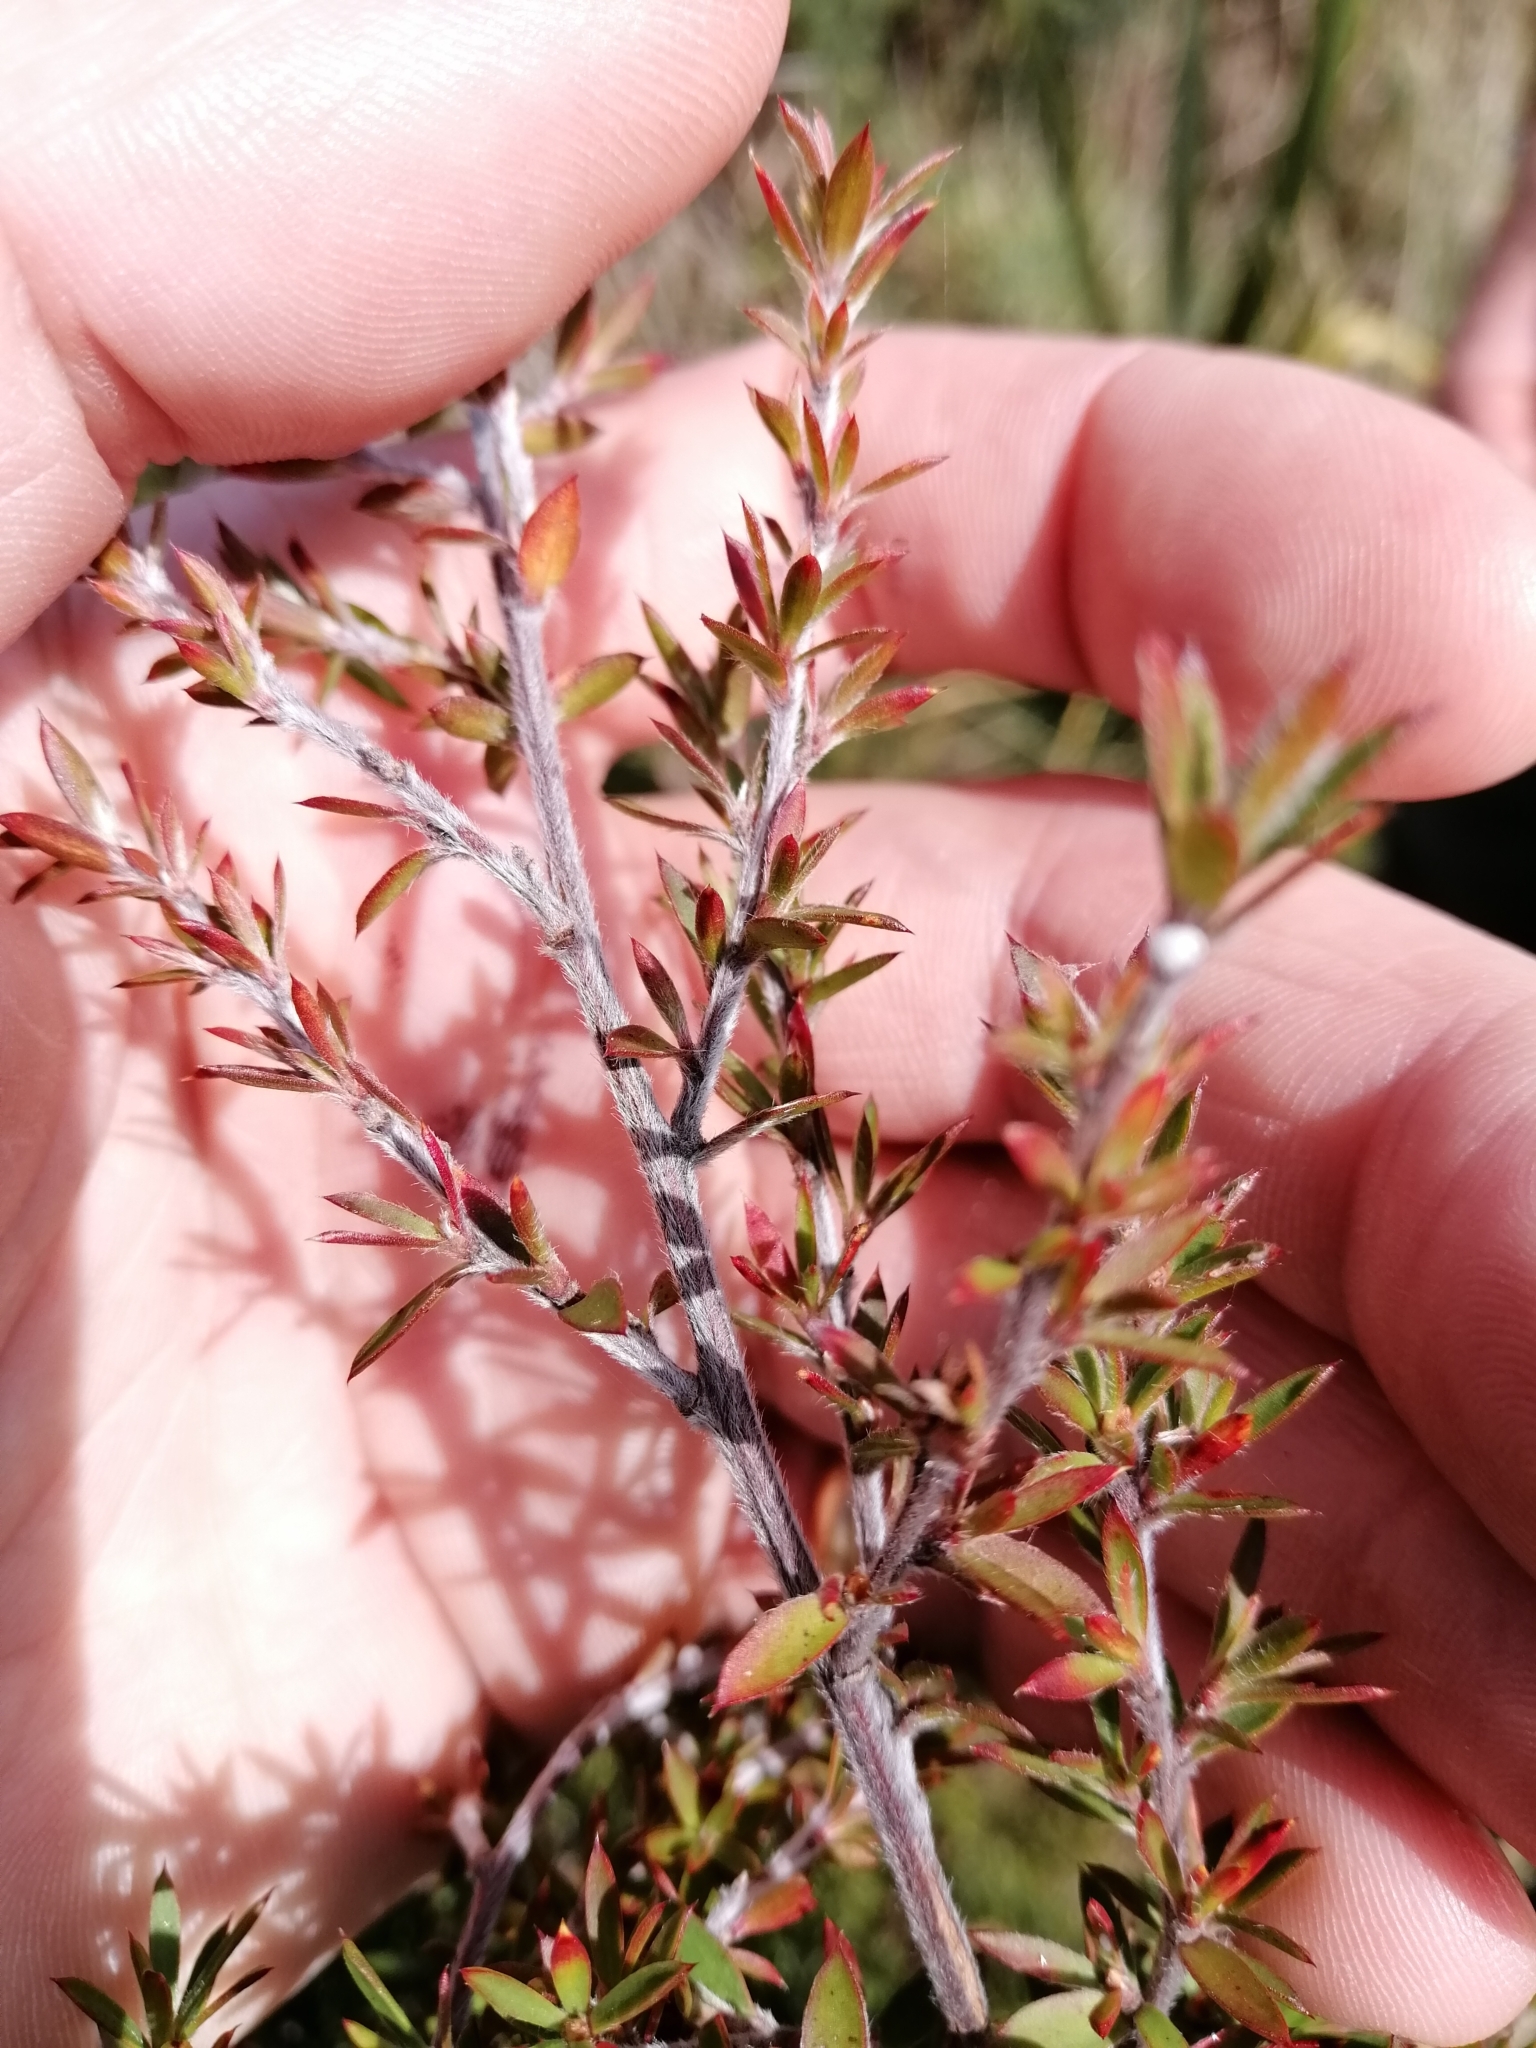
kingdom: Plantae
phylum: Tracheophyta
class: Magnoliopsida
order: Myrtales
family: Myrtaceae
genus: Leptospermum
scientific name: Leptospermum scoparium
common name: Broom tea-tree
